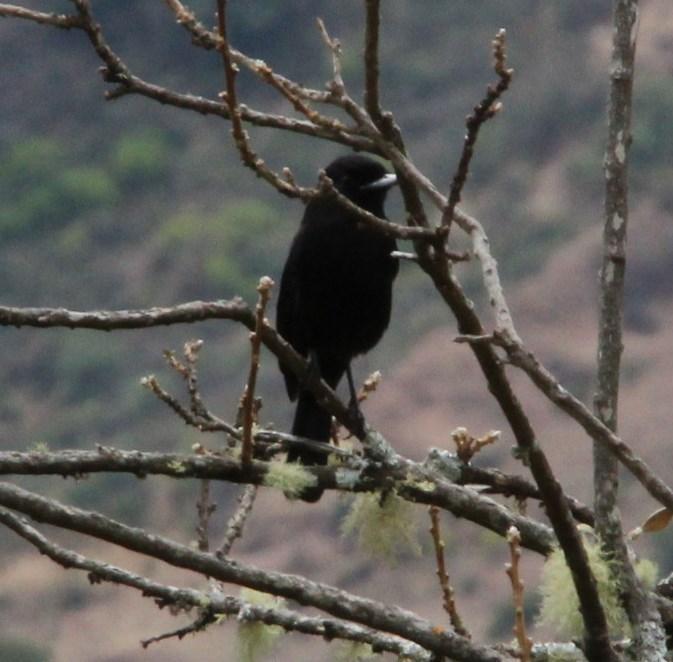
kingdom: Animalia
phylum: Chordata
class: Aves
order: Passeriformes
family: Tyrannidae
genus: Knipolegus
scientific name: Knipolegus aterrimus
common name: White-winged black tyrant
